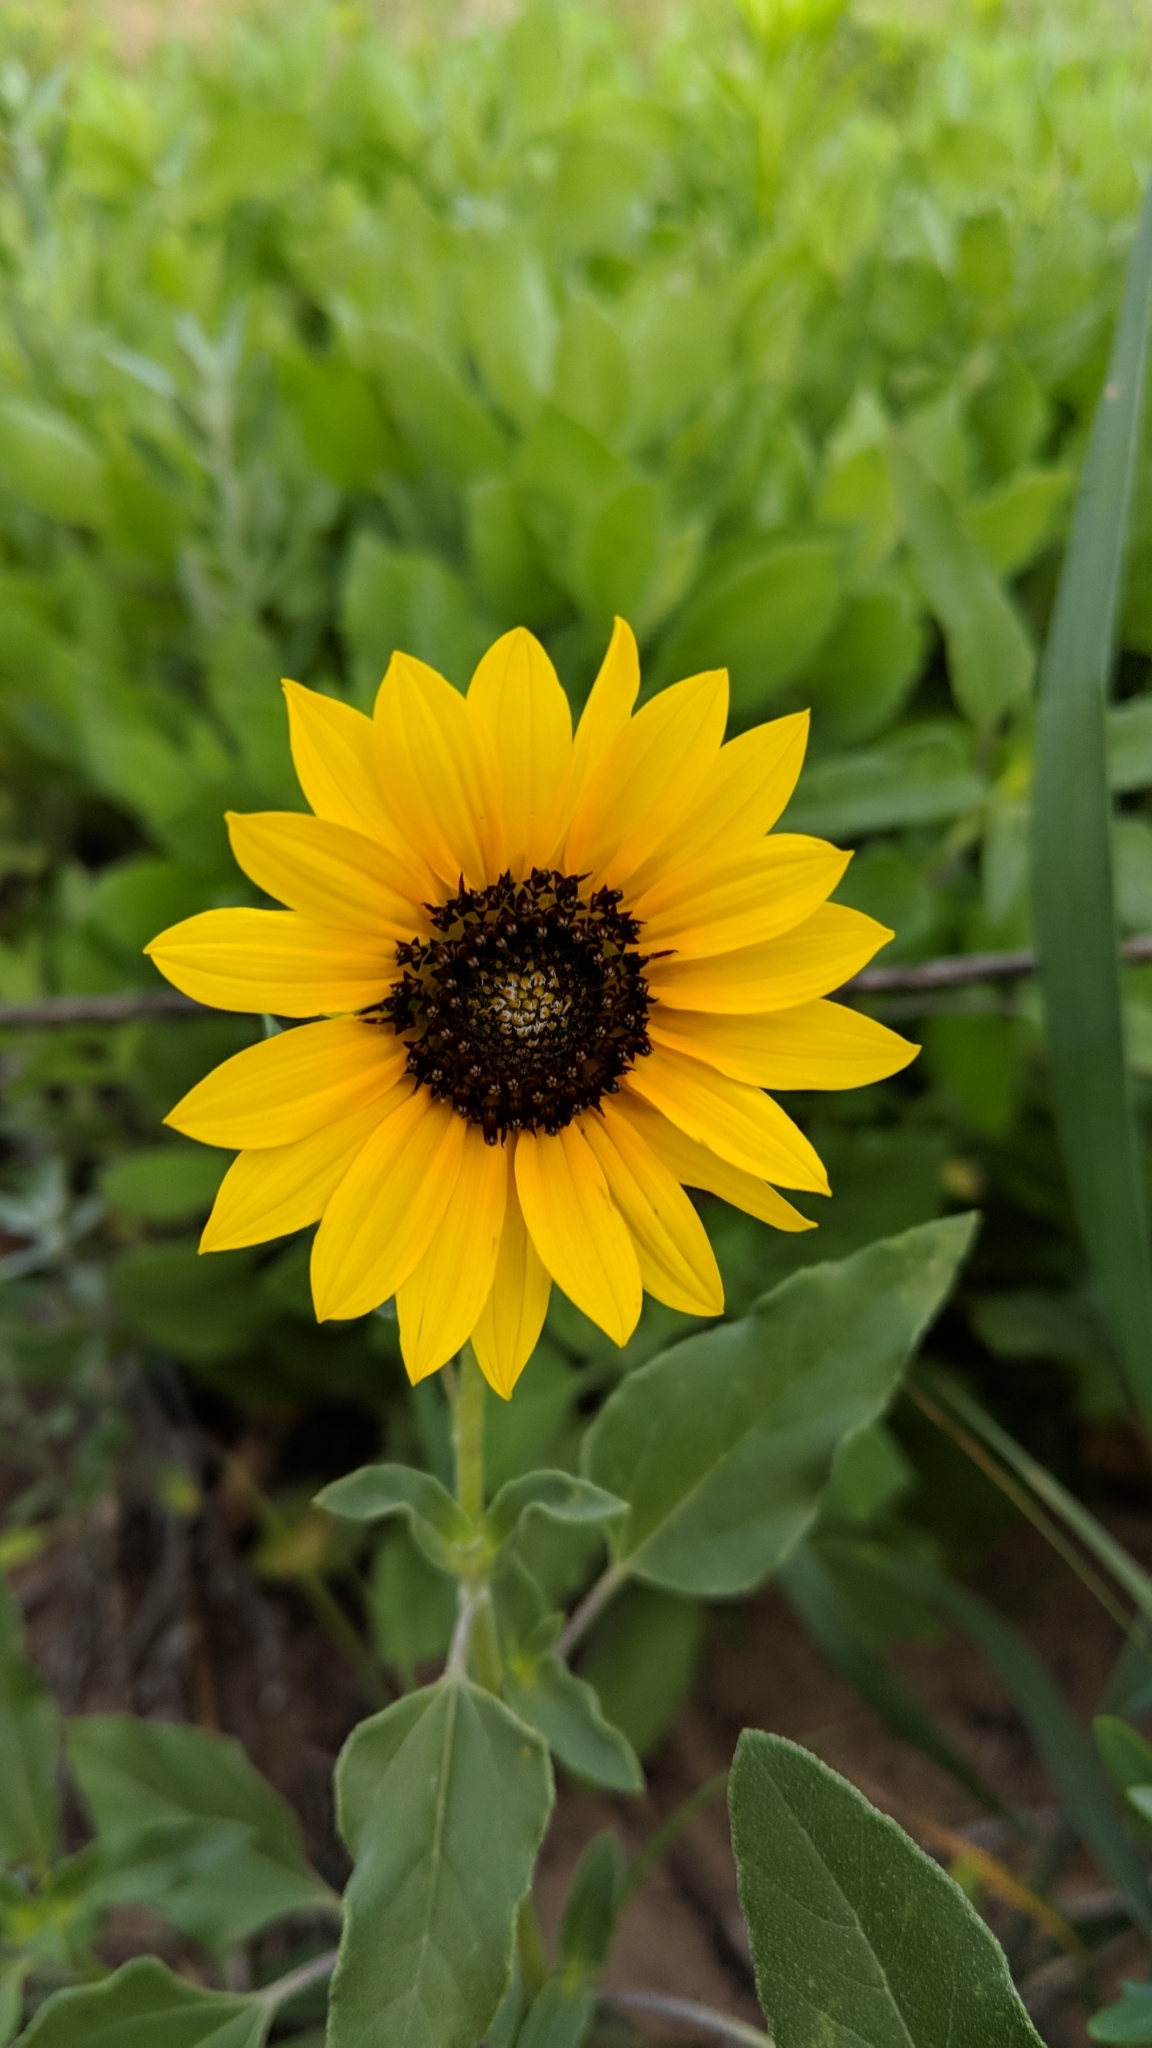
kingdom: Plantae
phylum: Tracheophyta
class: Magnoliopsida
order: Asterales
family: Asteraceae
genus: Helianthus
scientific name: Helianthus petiolaris
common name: Lesser sunflower
